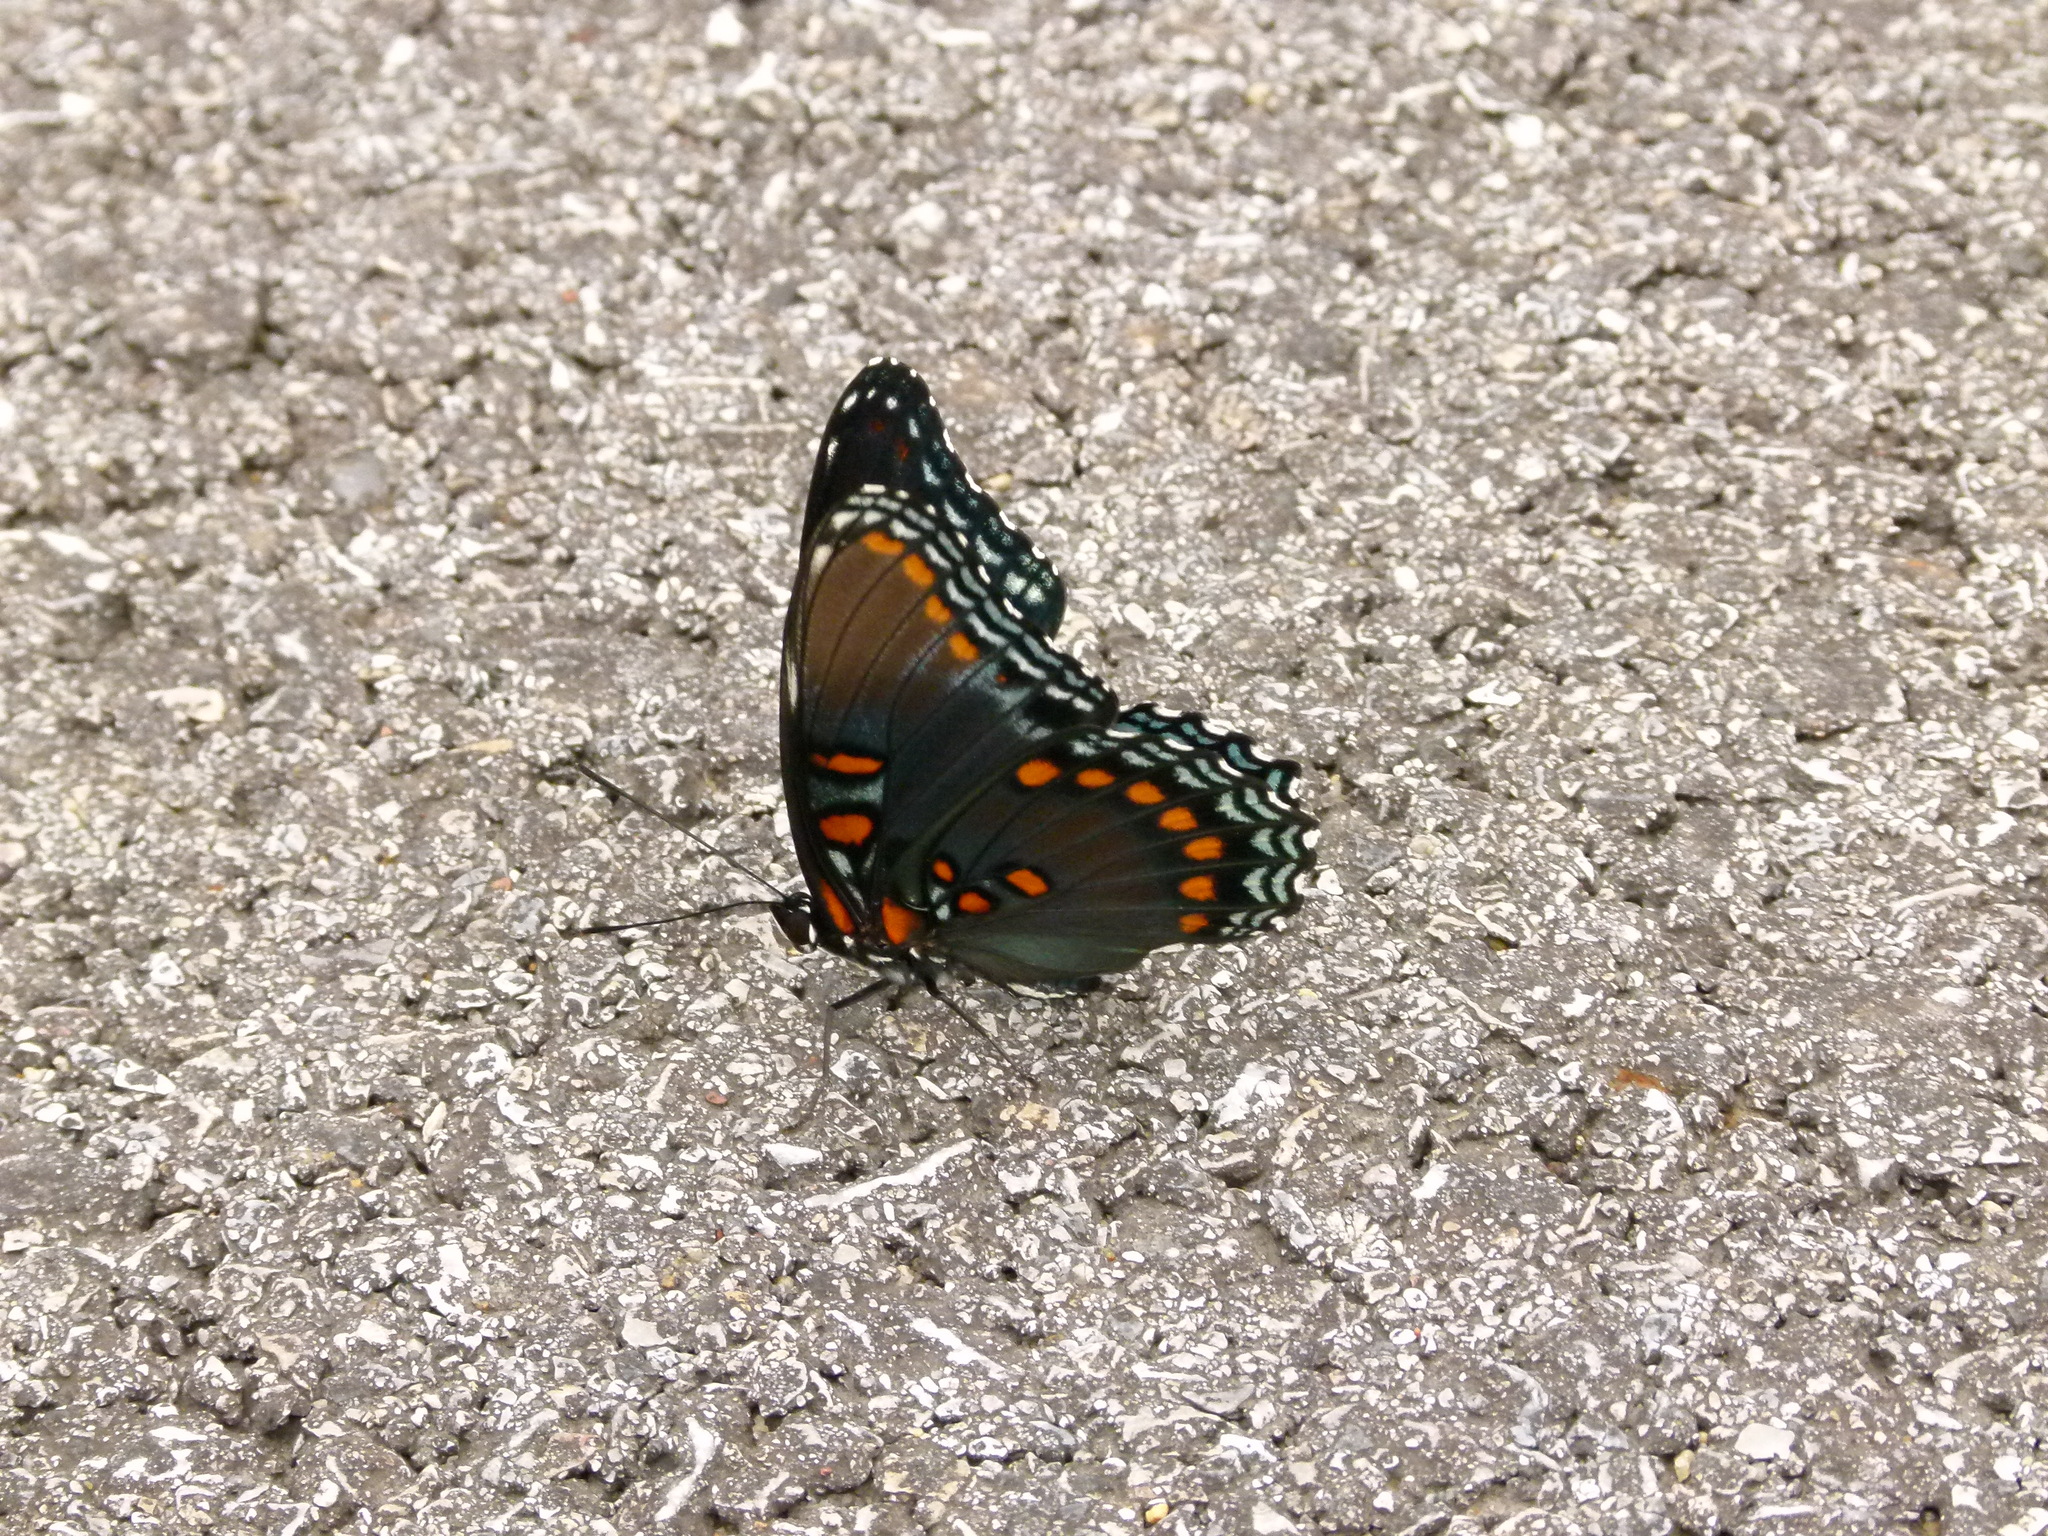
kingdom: Animalia
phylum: Arthropoda
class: Insecta
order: Lepidoptera
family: Nymphalidae
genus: Limenitis
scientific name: Limenitis astyanax
